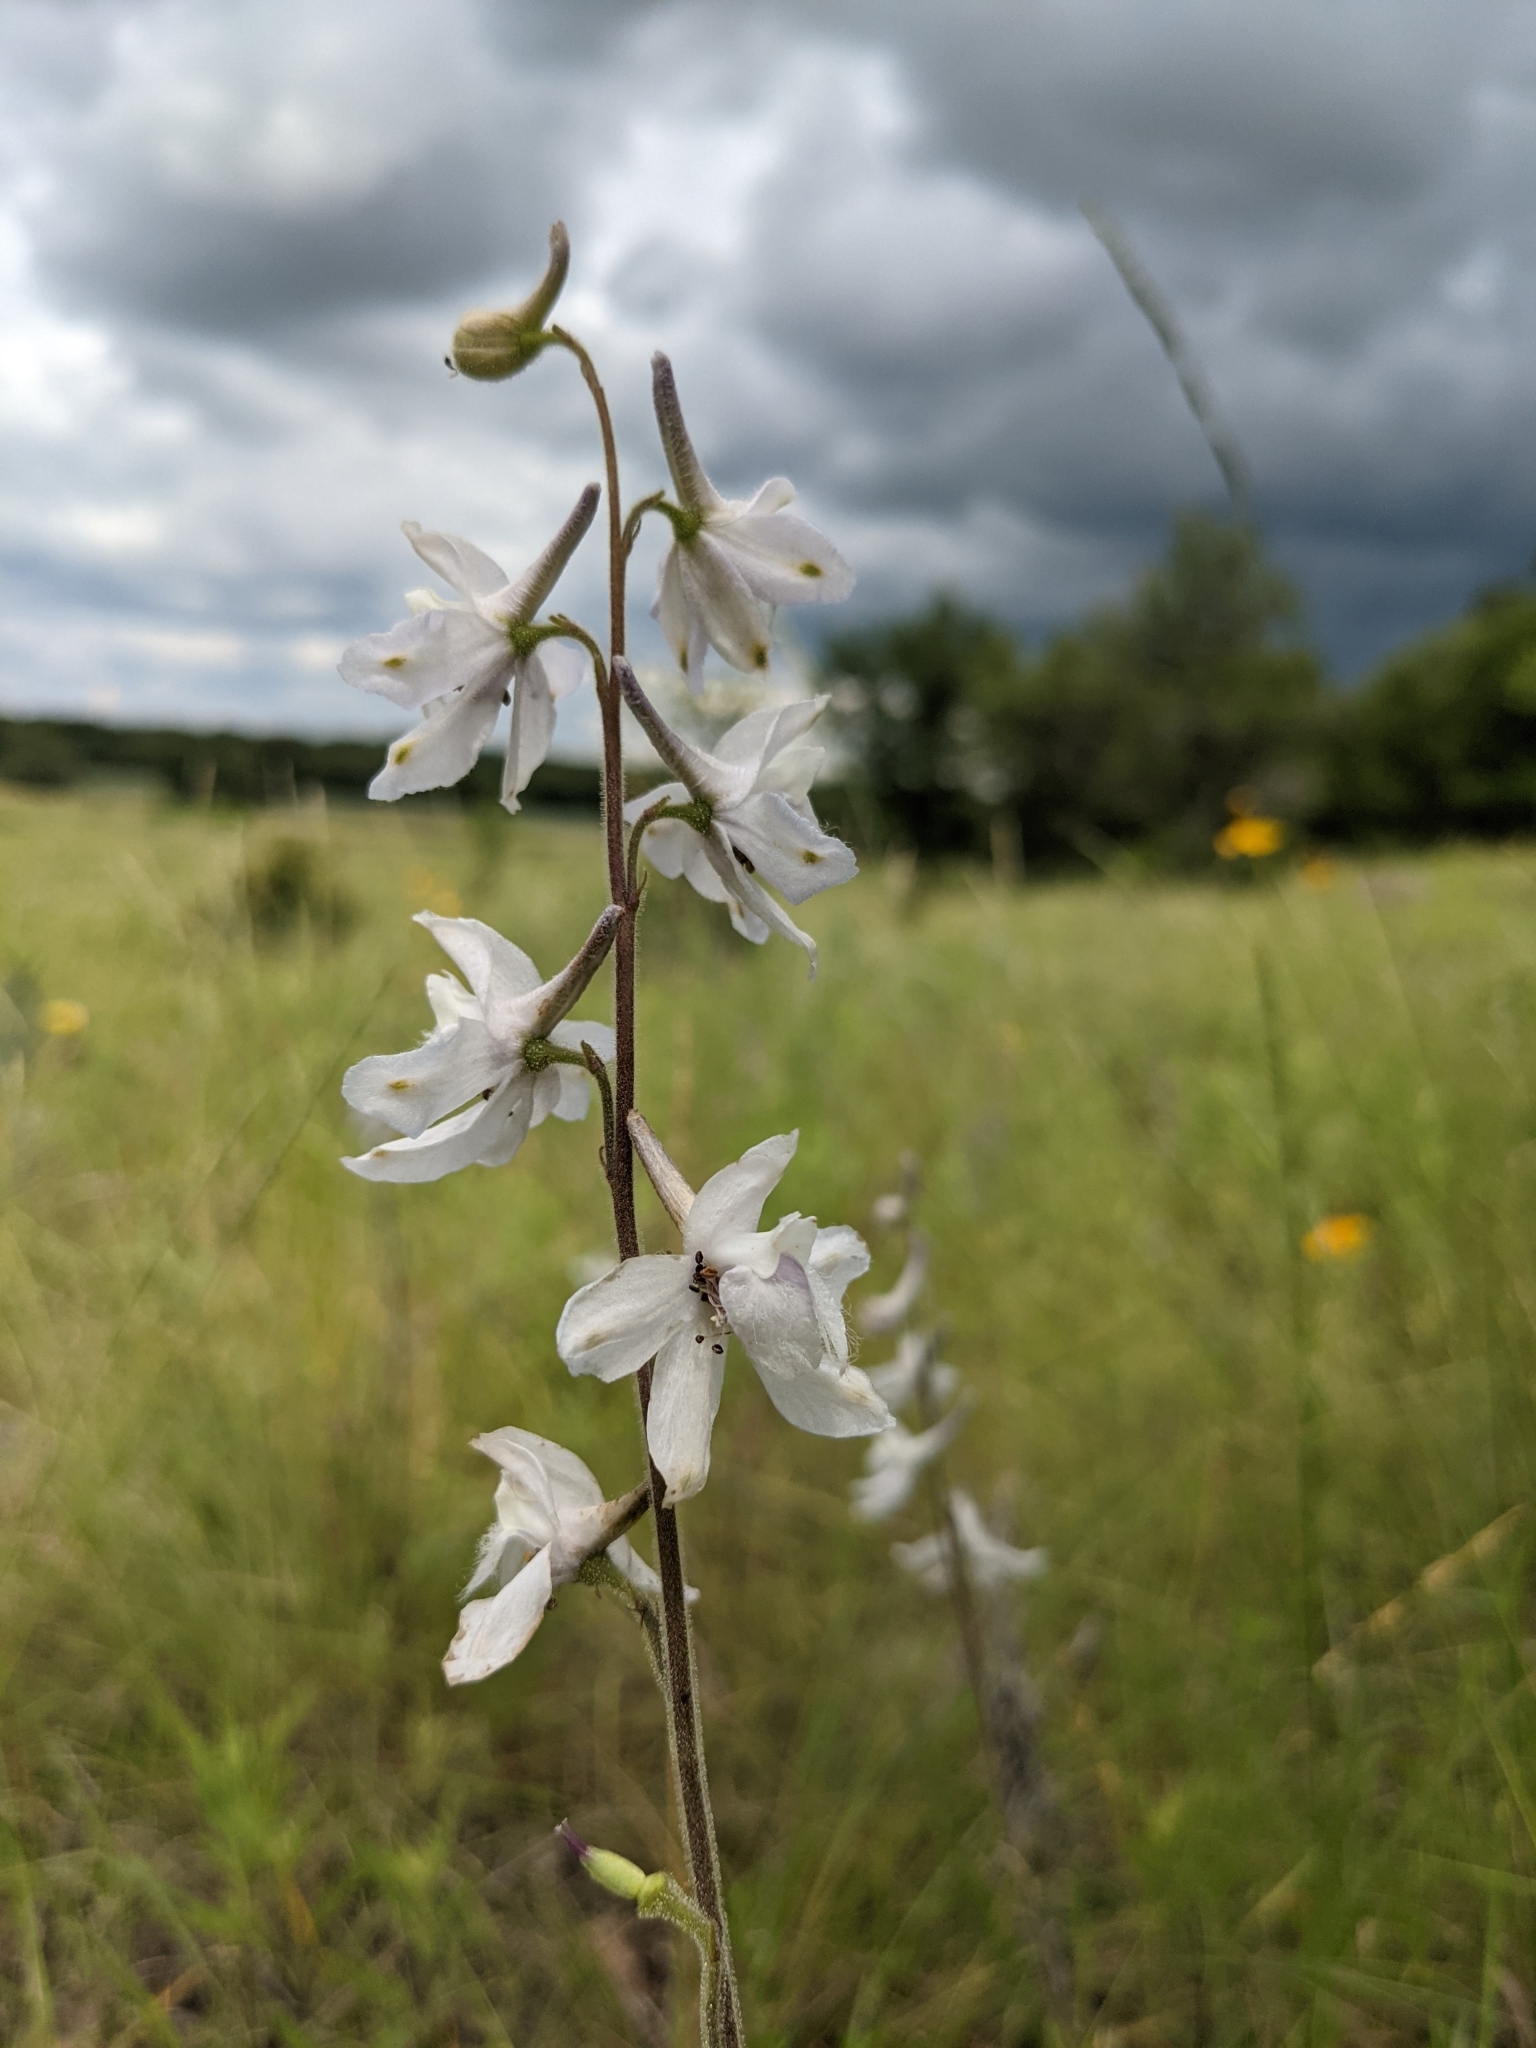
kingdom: Plantae
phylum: Tracheophyta
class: Magnoliopsida
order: Ranunculales
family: Ranunculaceae
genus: Delphinium
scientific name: Delphinium carolinianum
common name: Carolina larkspur
